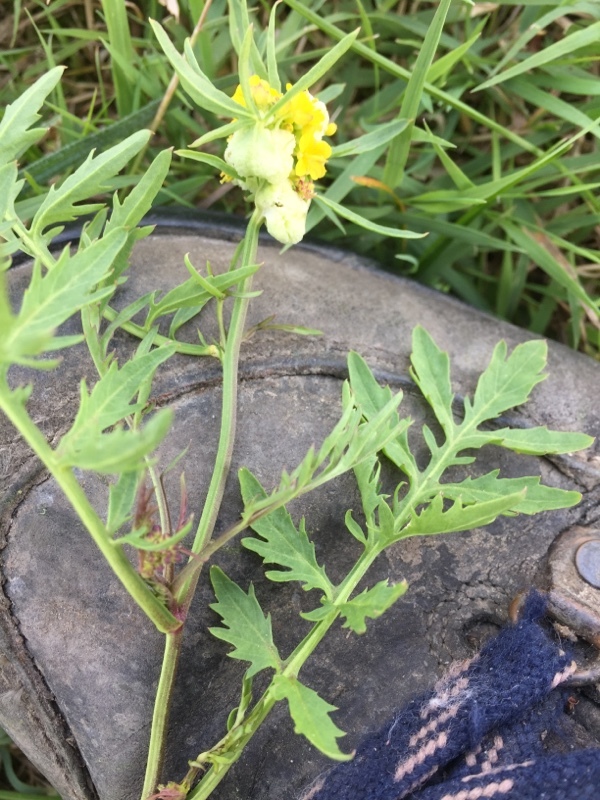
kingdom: Animalia
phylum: Arthropoda
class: Insecta
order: Diptera
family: Cecidomyiidae
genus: Dasineura
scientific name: Dasineura sisymbrii
